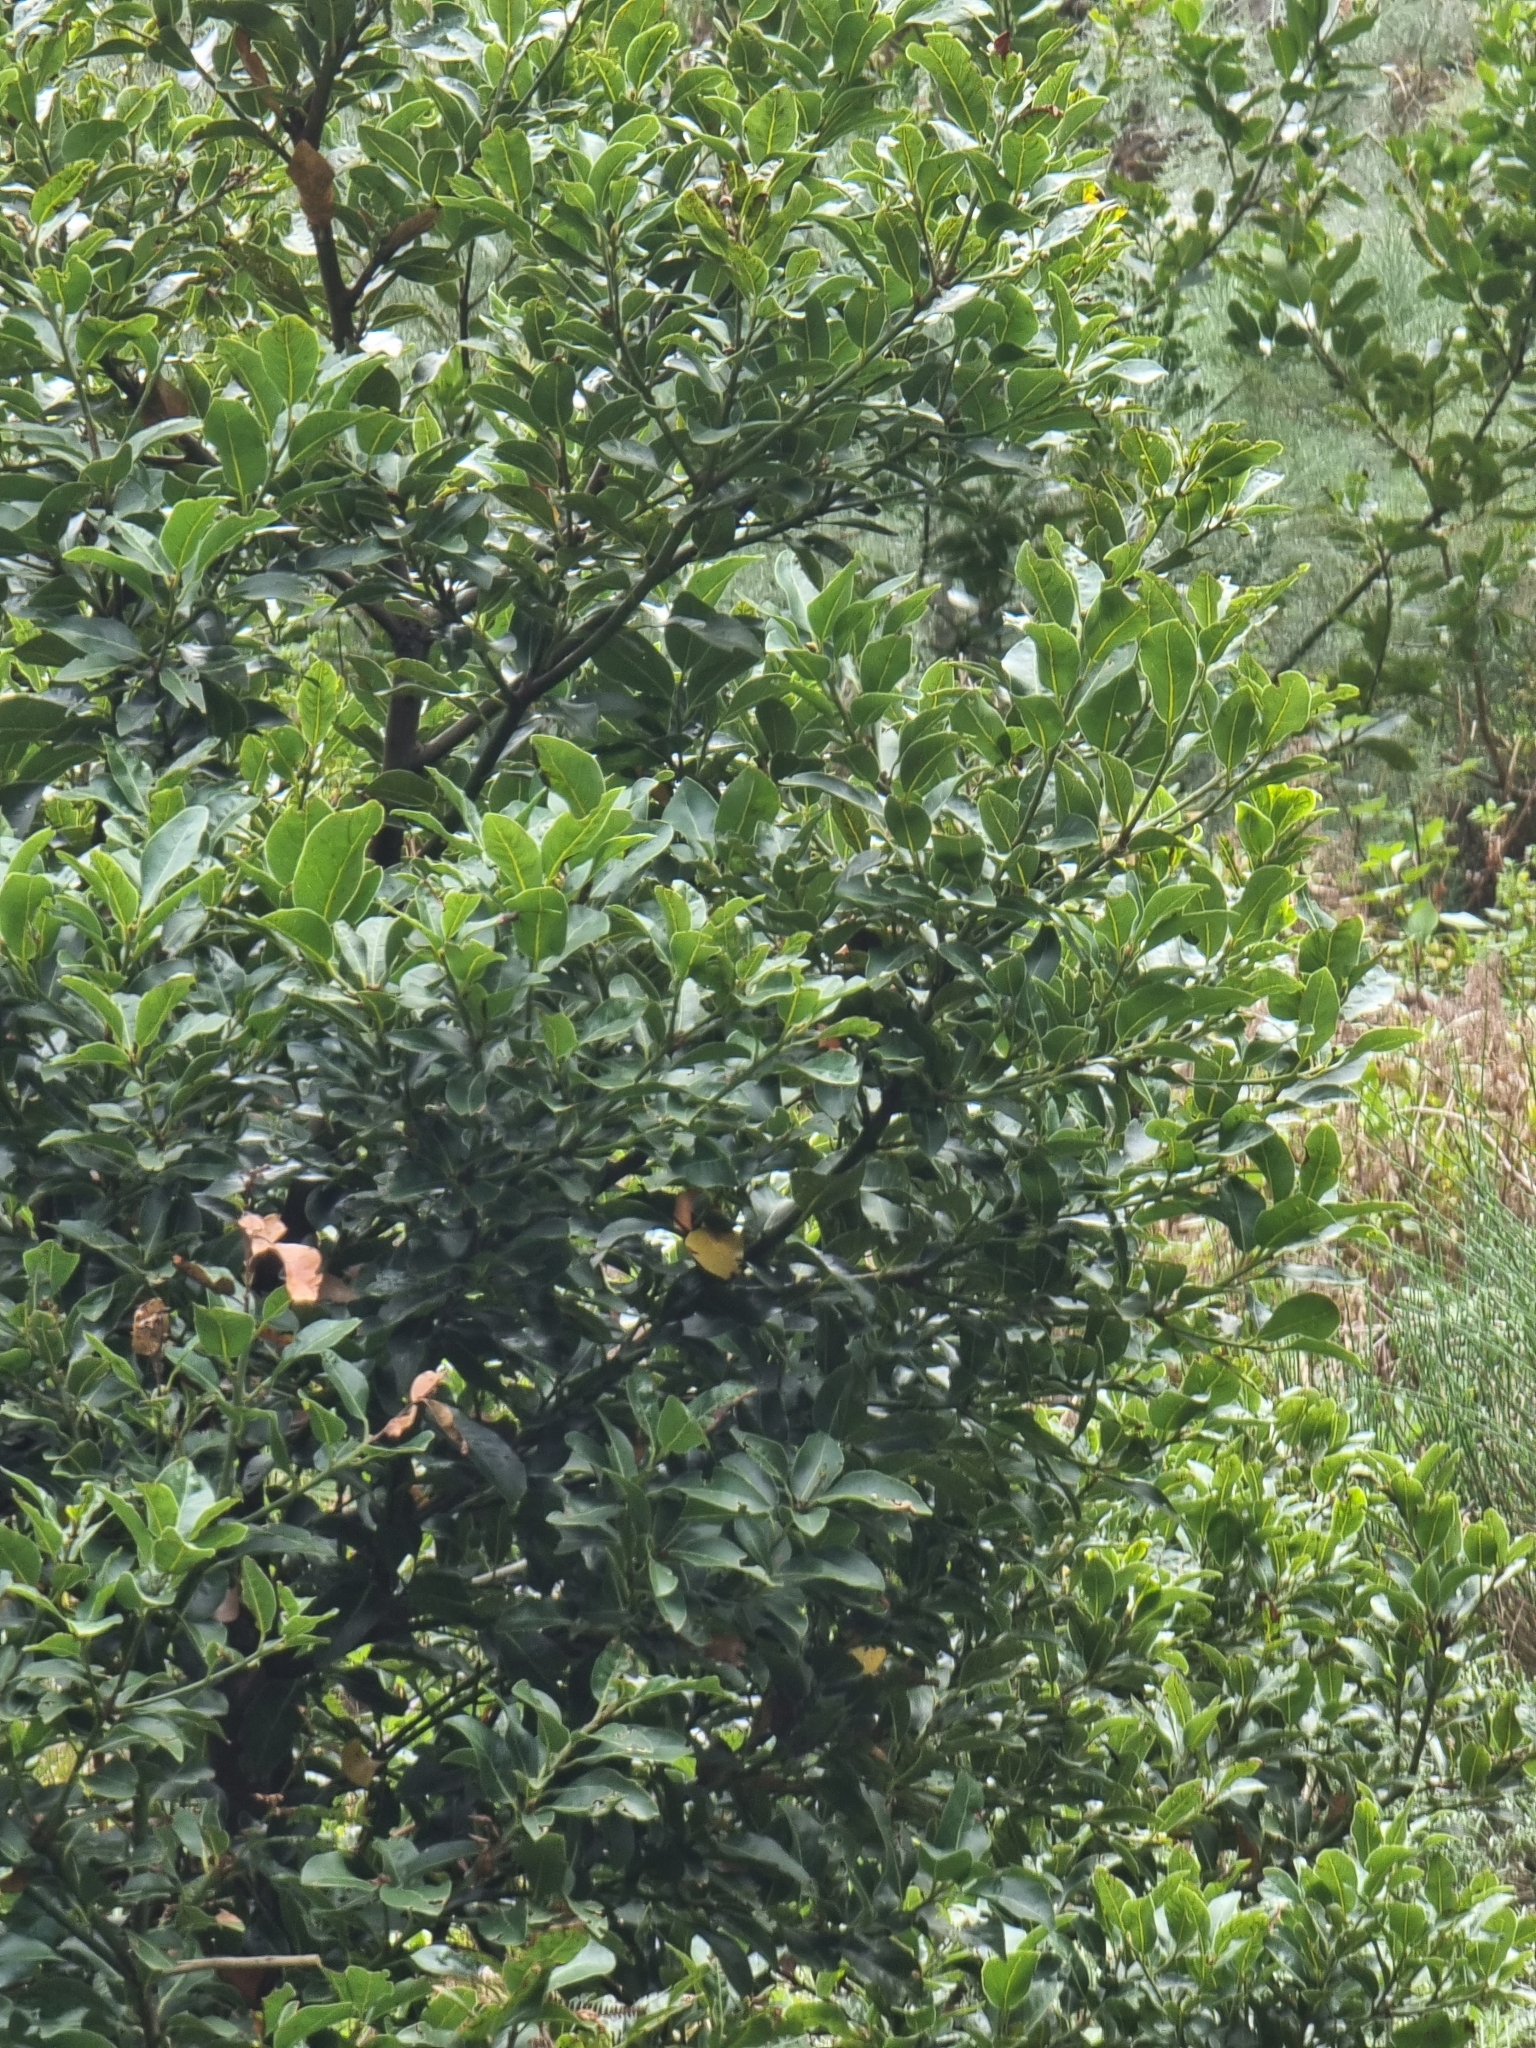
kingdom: Plantae
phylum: Tracheophyta
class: Magnoliopsida
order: Laurales
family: Lauraceae
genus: Laurus
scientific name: Laurus novocanariensis
